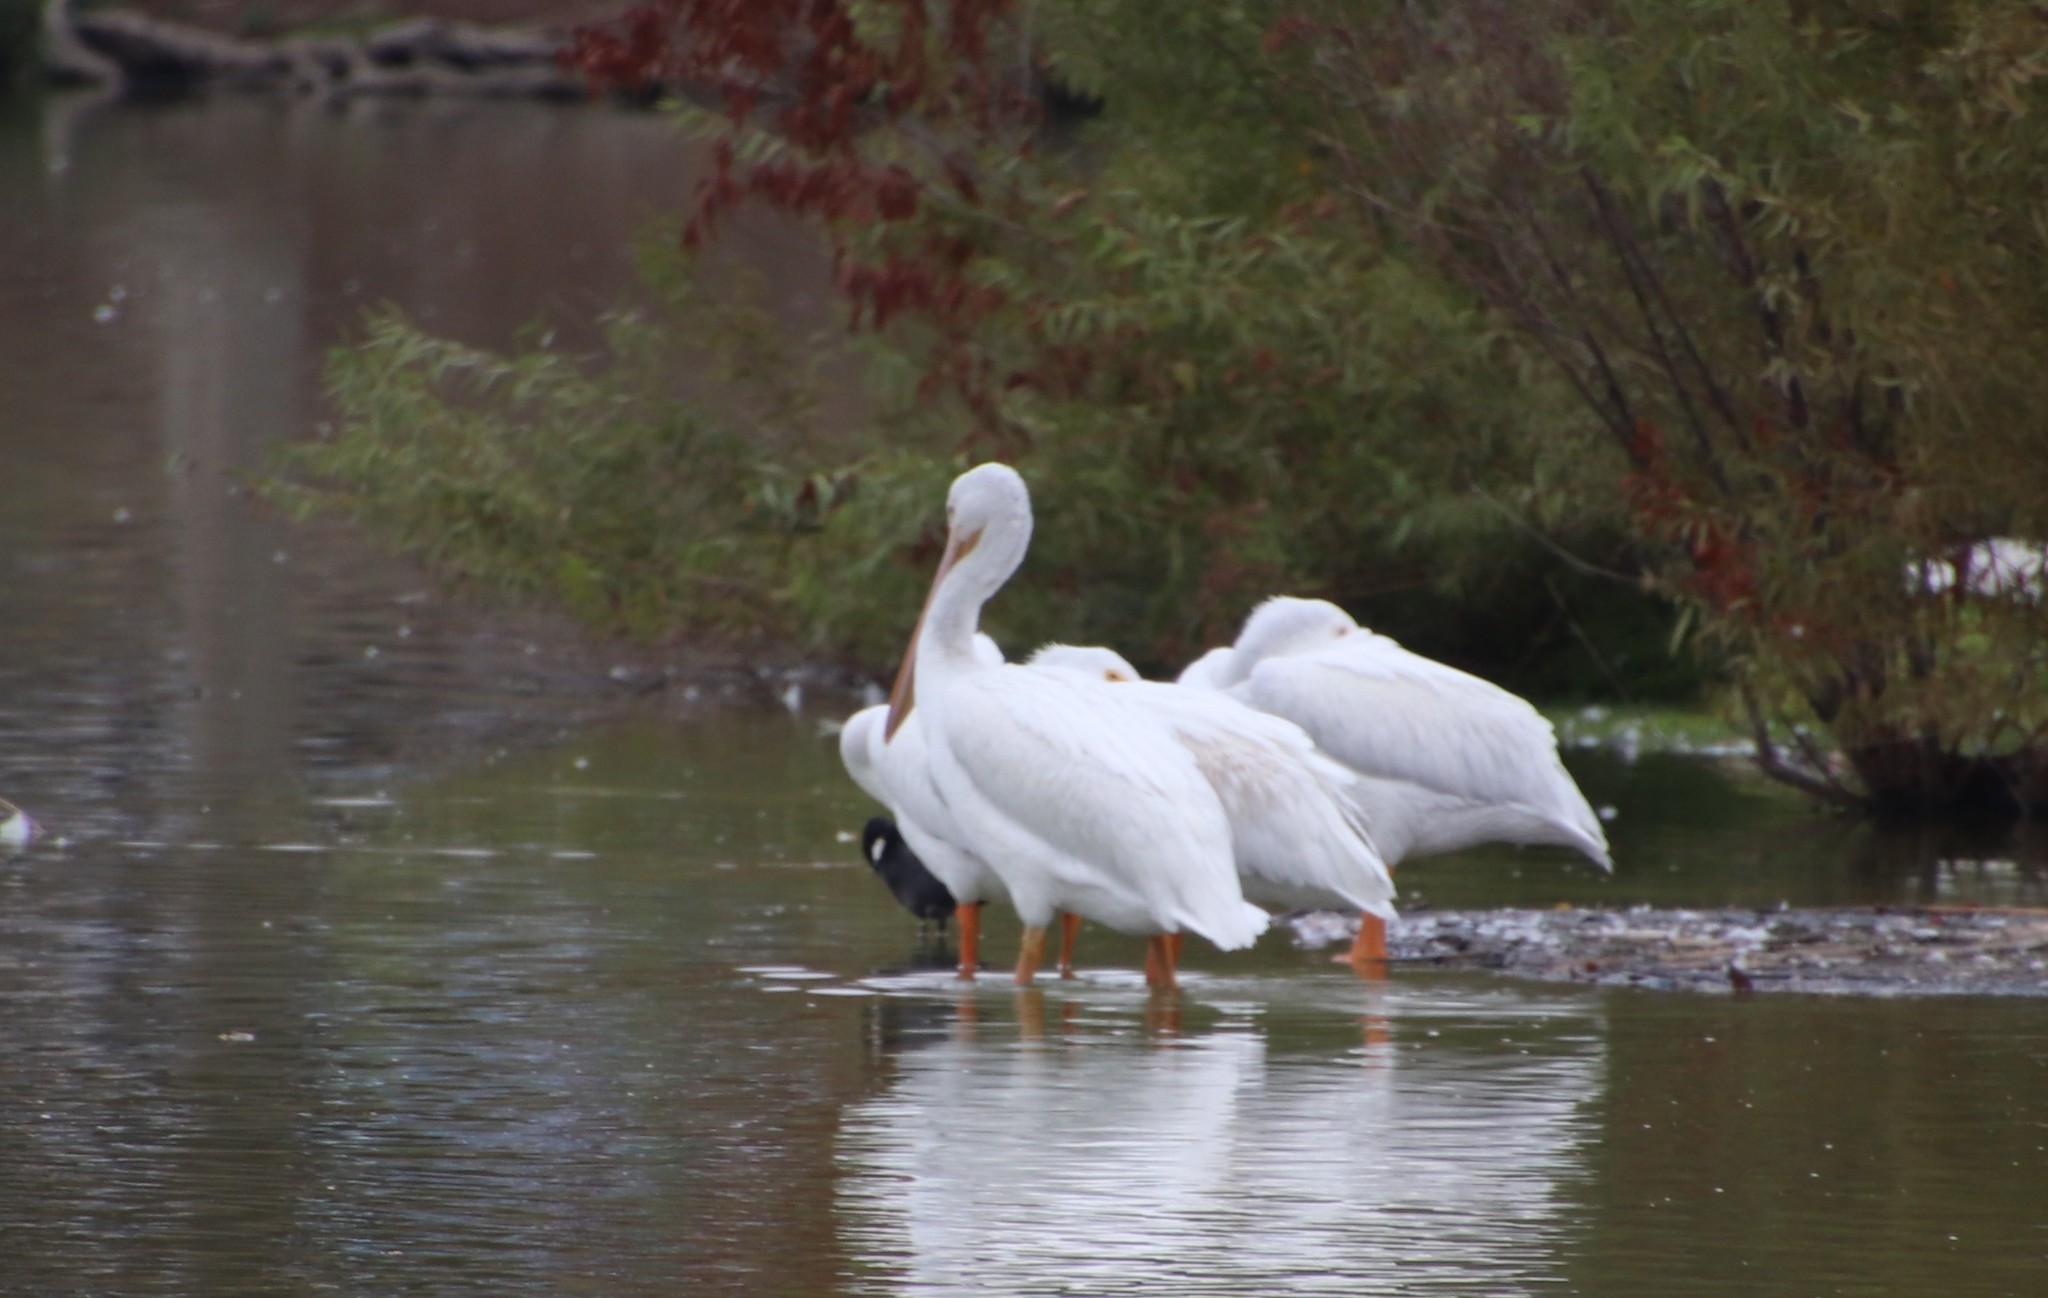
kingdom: Animalia
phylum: Chordata
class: Aves
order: Pelecaniformes
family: Pelecanidae
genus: Pelecanus
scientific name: Pelecanus erythrorhynchos
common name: American white pelican
